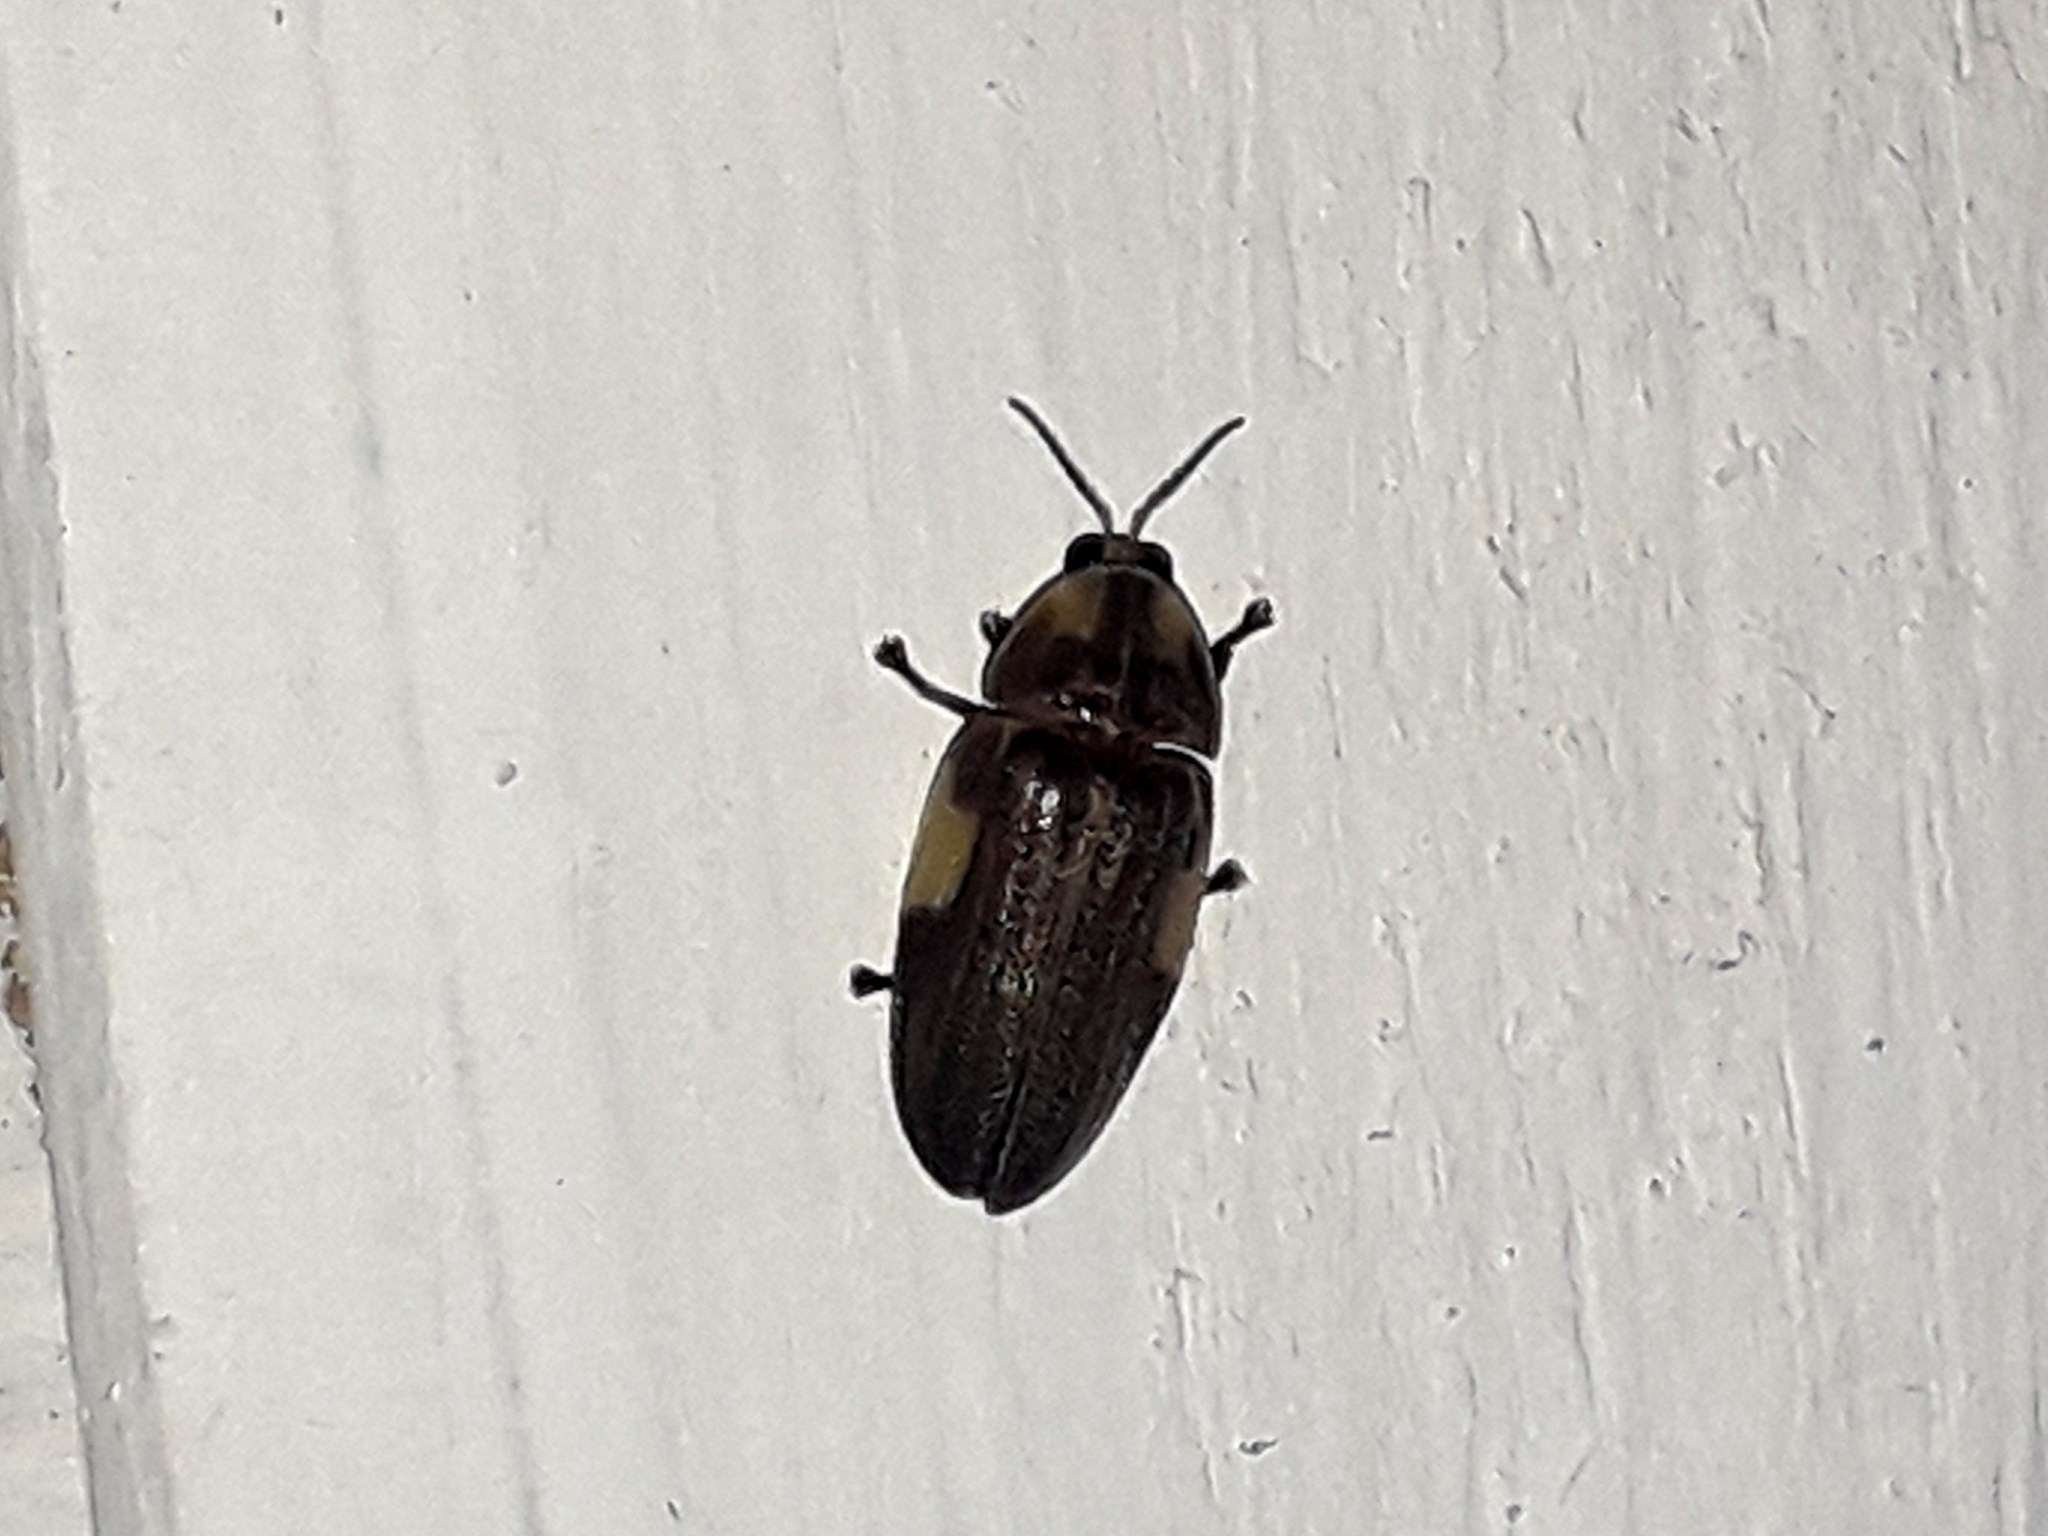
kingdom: Animalia
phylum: Arthropoda
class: Insecta
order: Coleoptera
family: Lampyridae
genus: Aspisoma
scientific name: Aspisoma ignitum
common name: Dixon's striped firefly
